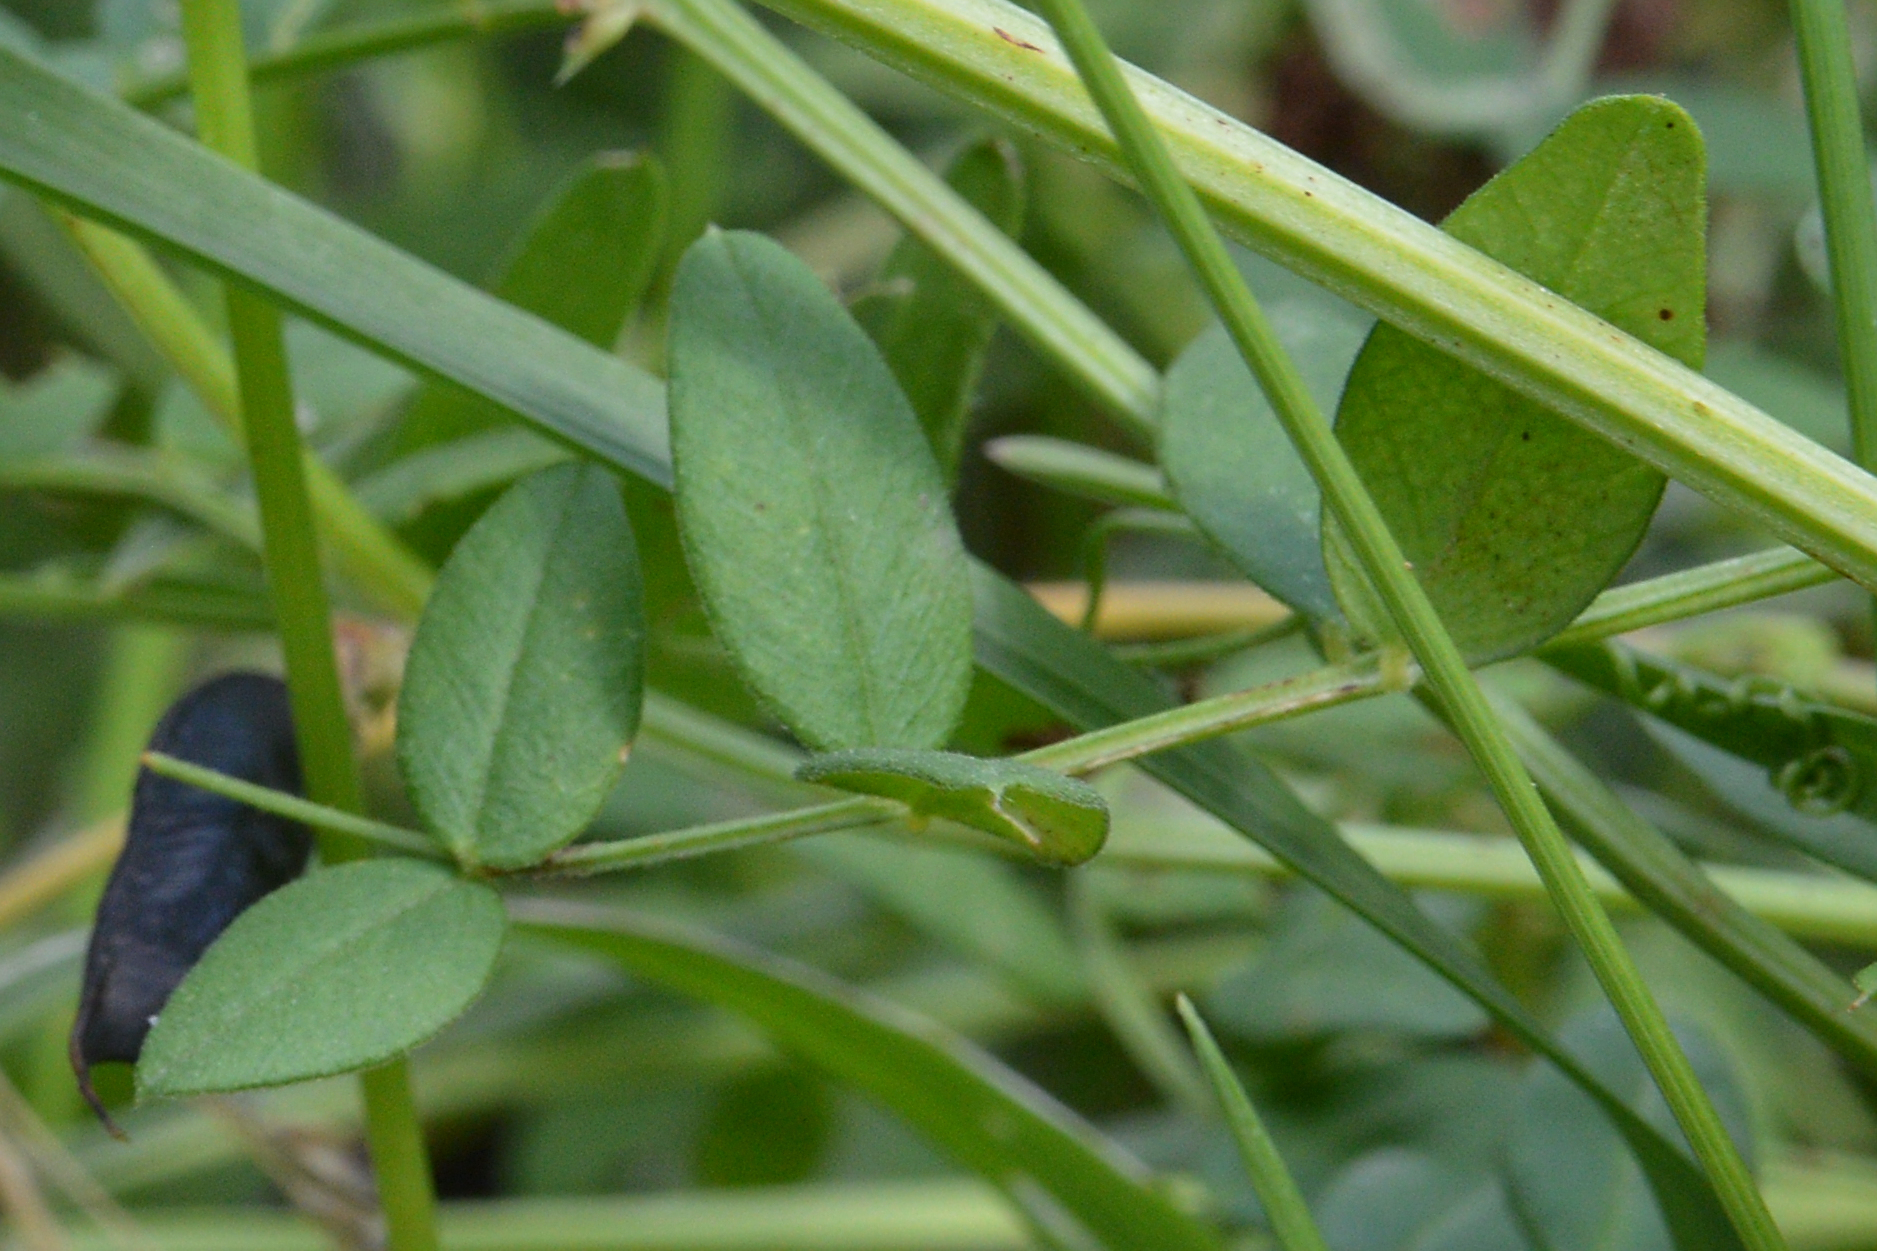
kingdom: Plantae
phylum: Tracheophyta
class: Magnoliopsida
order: Fabales
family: Fabaceae
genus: Vicia
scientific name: Vicia sepium
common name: Bush vetch
